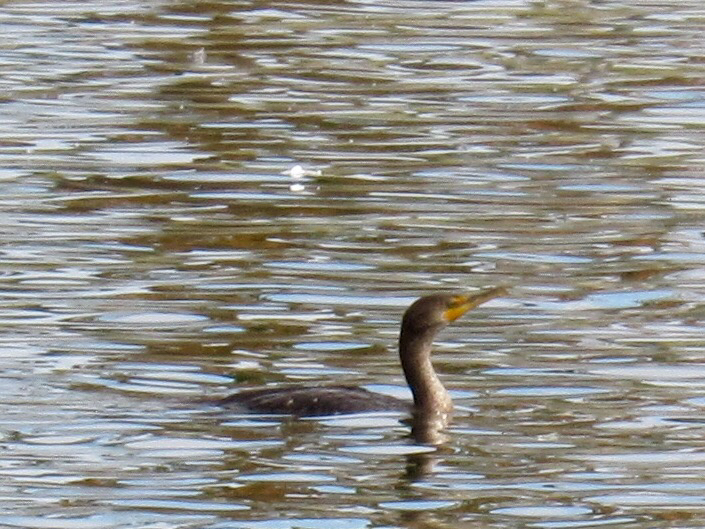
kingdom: Animalia
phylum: Chordata
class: Aves
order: Suliformes
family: Phalacrocoracidae
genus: Phalacrocorax
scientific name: Phalacrocorax auritus
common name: Double-crested cormorant
